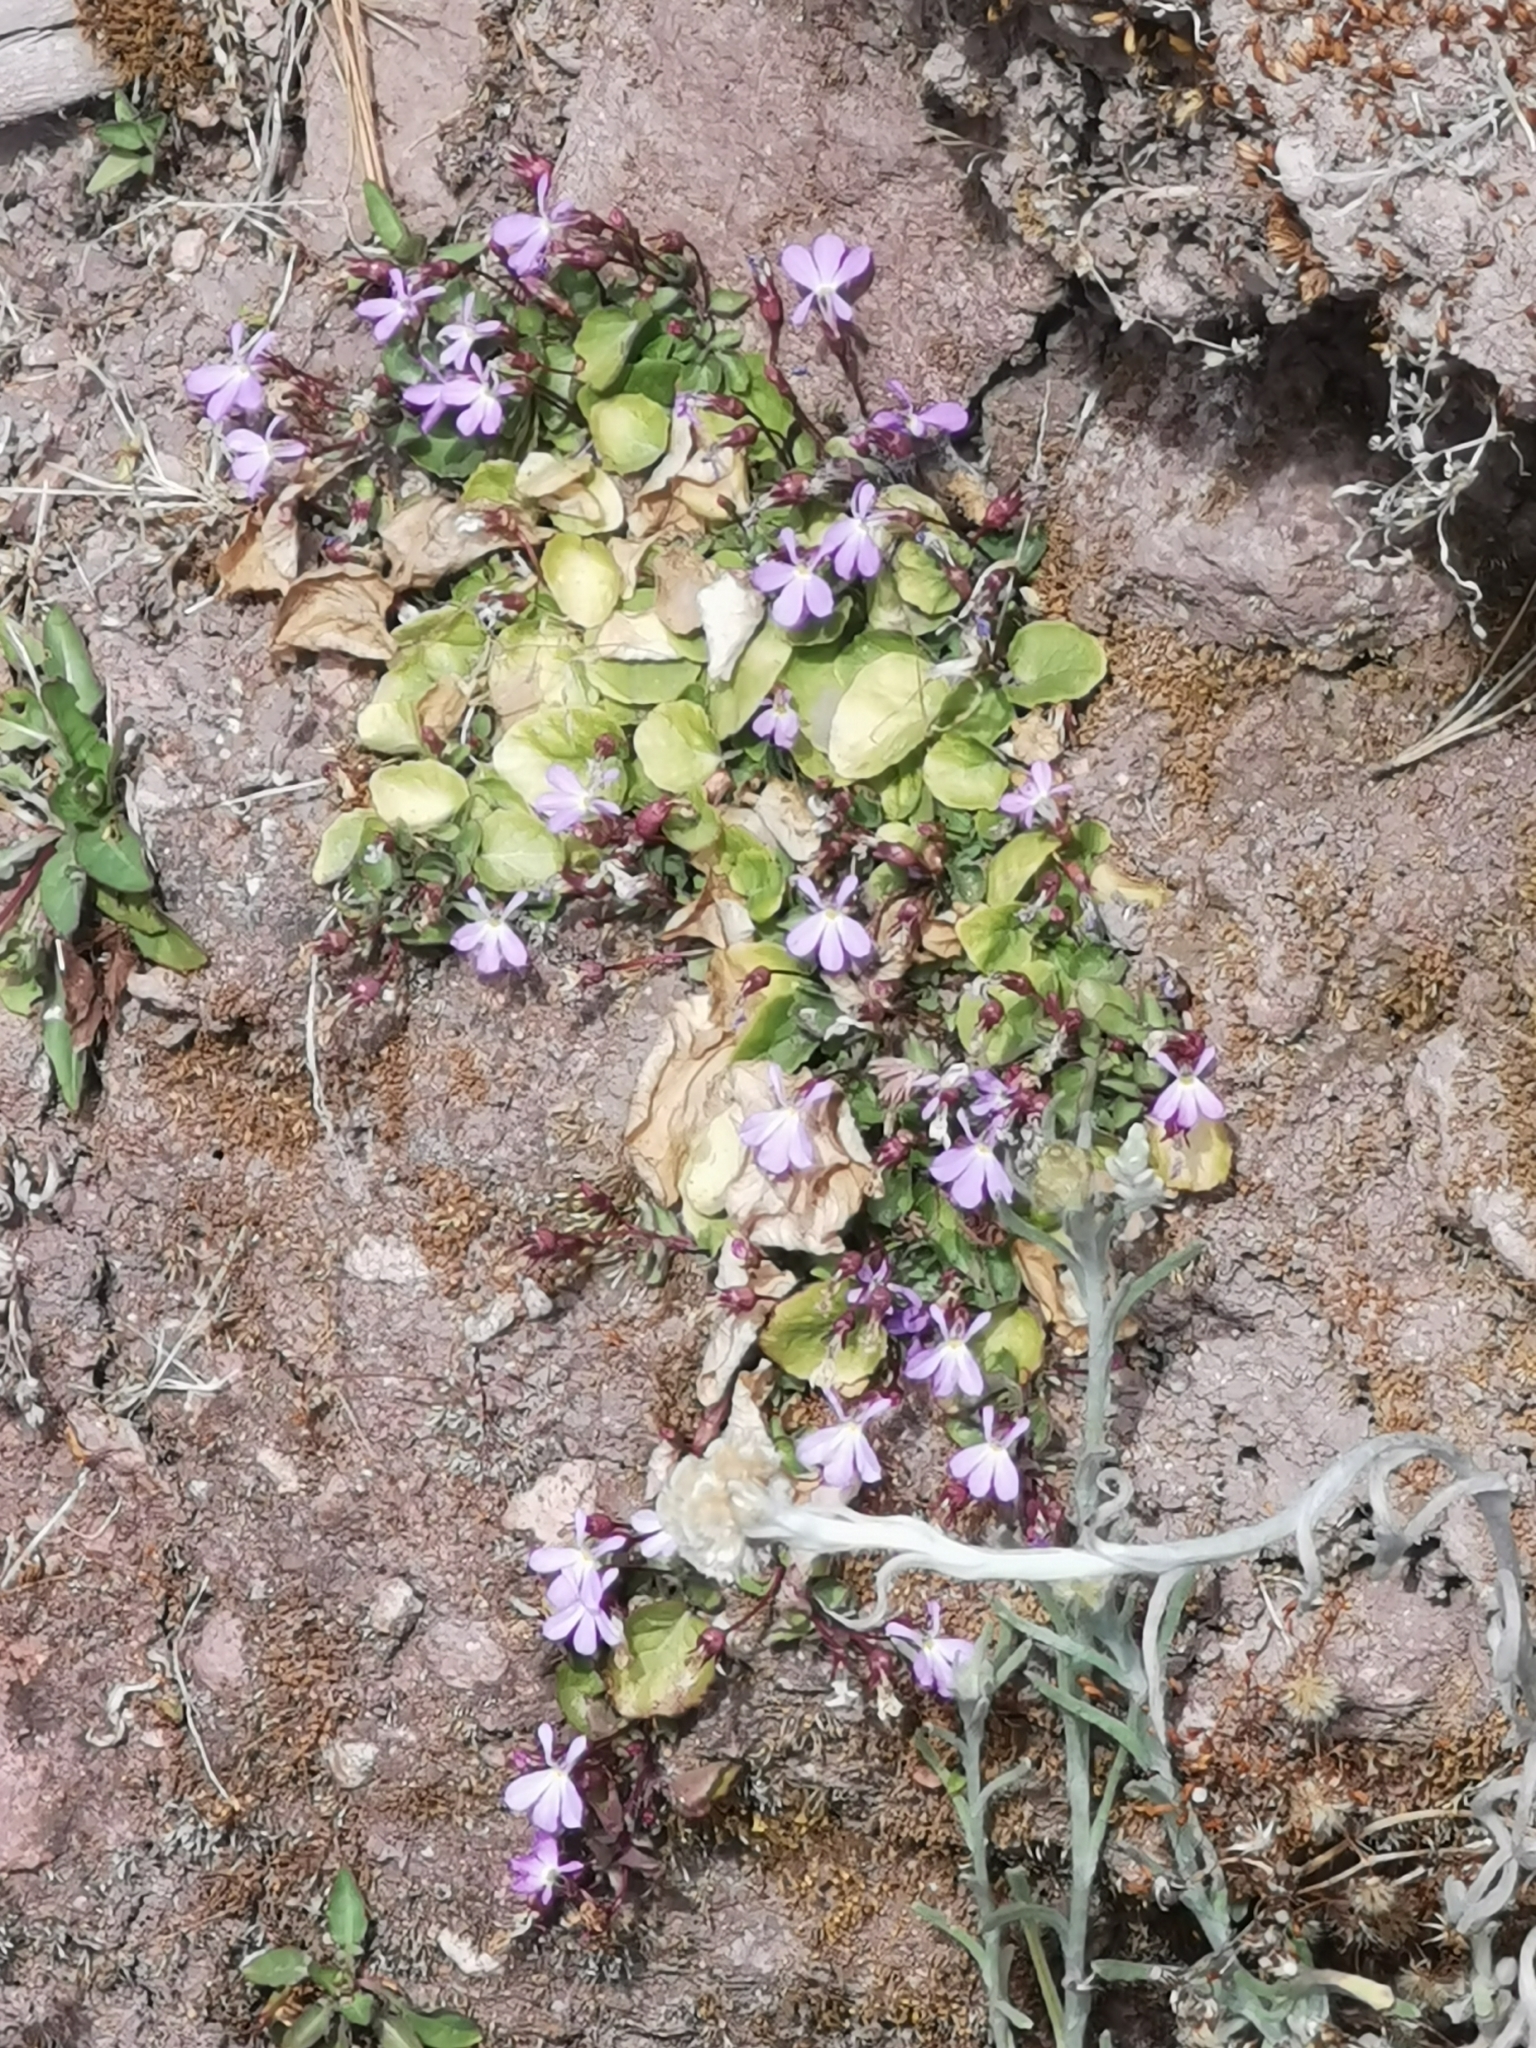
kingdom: Plantae
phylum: Tracheophyta
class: Magnoliopsida
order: Asterales
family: Campanulaceae
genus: Lobelia
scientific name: Lobelia saturninoi
